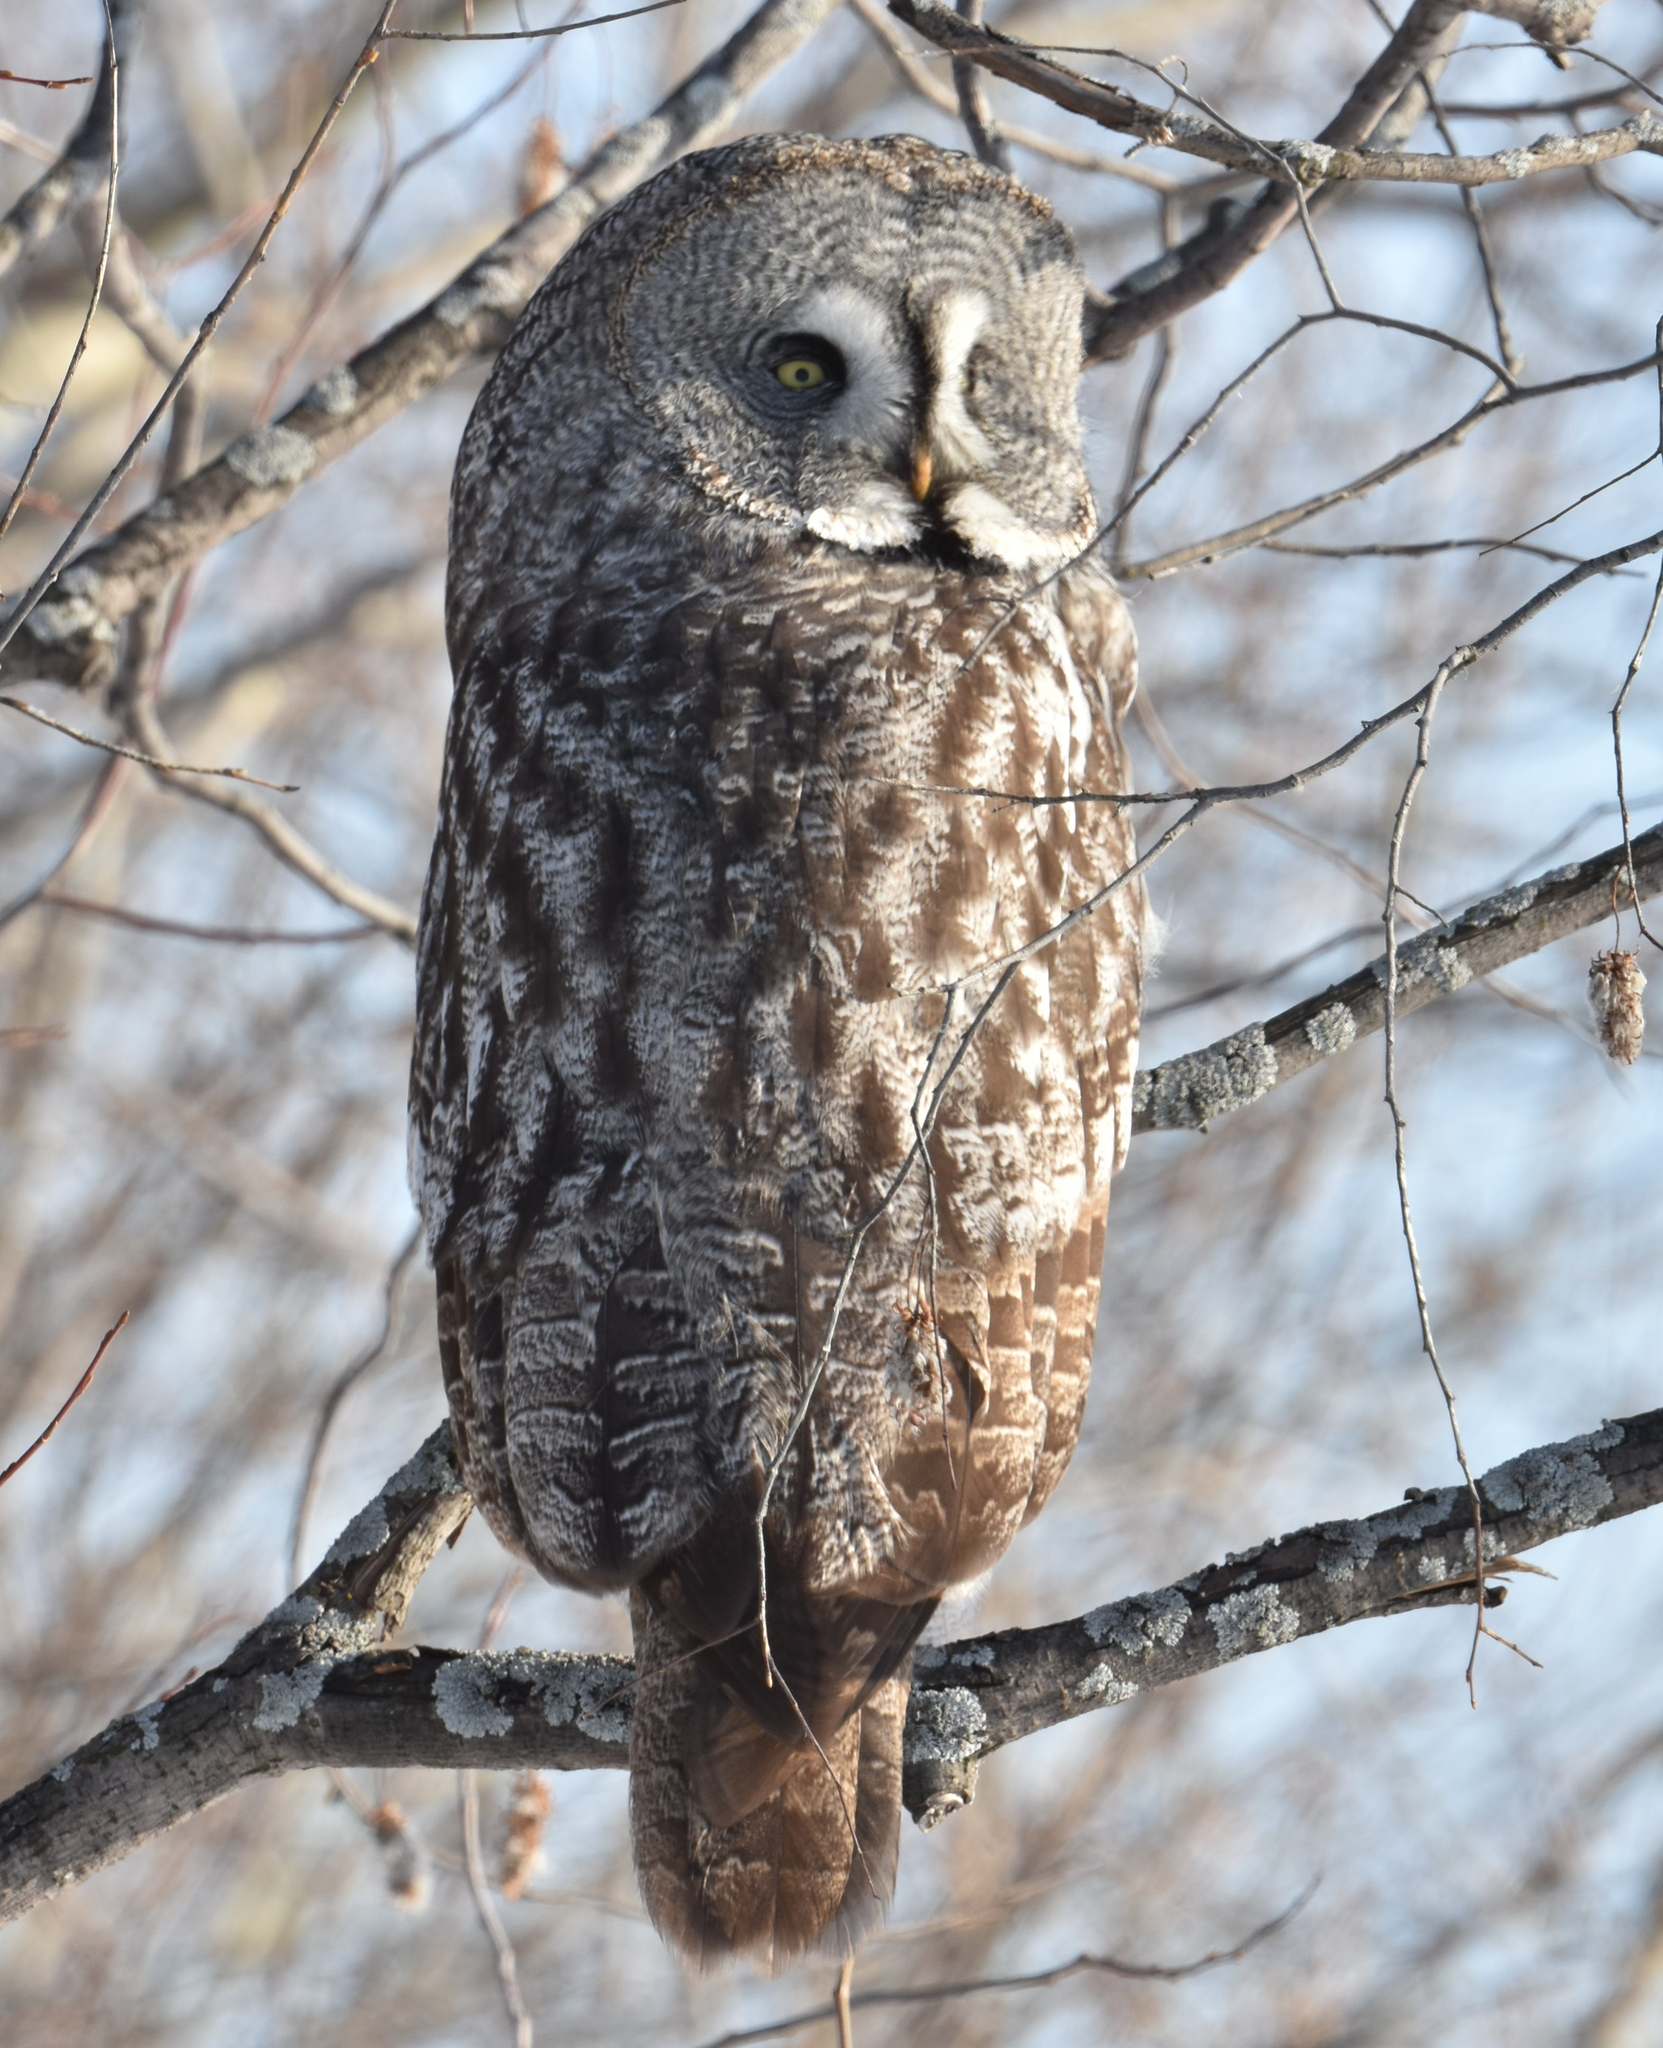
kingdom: Animalia
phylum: Chordata
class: Aves
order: Strigiformes
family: Strigidae
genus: Strix
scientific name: Strix nebulosa
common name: Great grey owl
